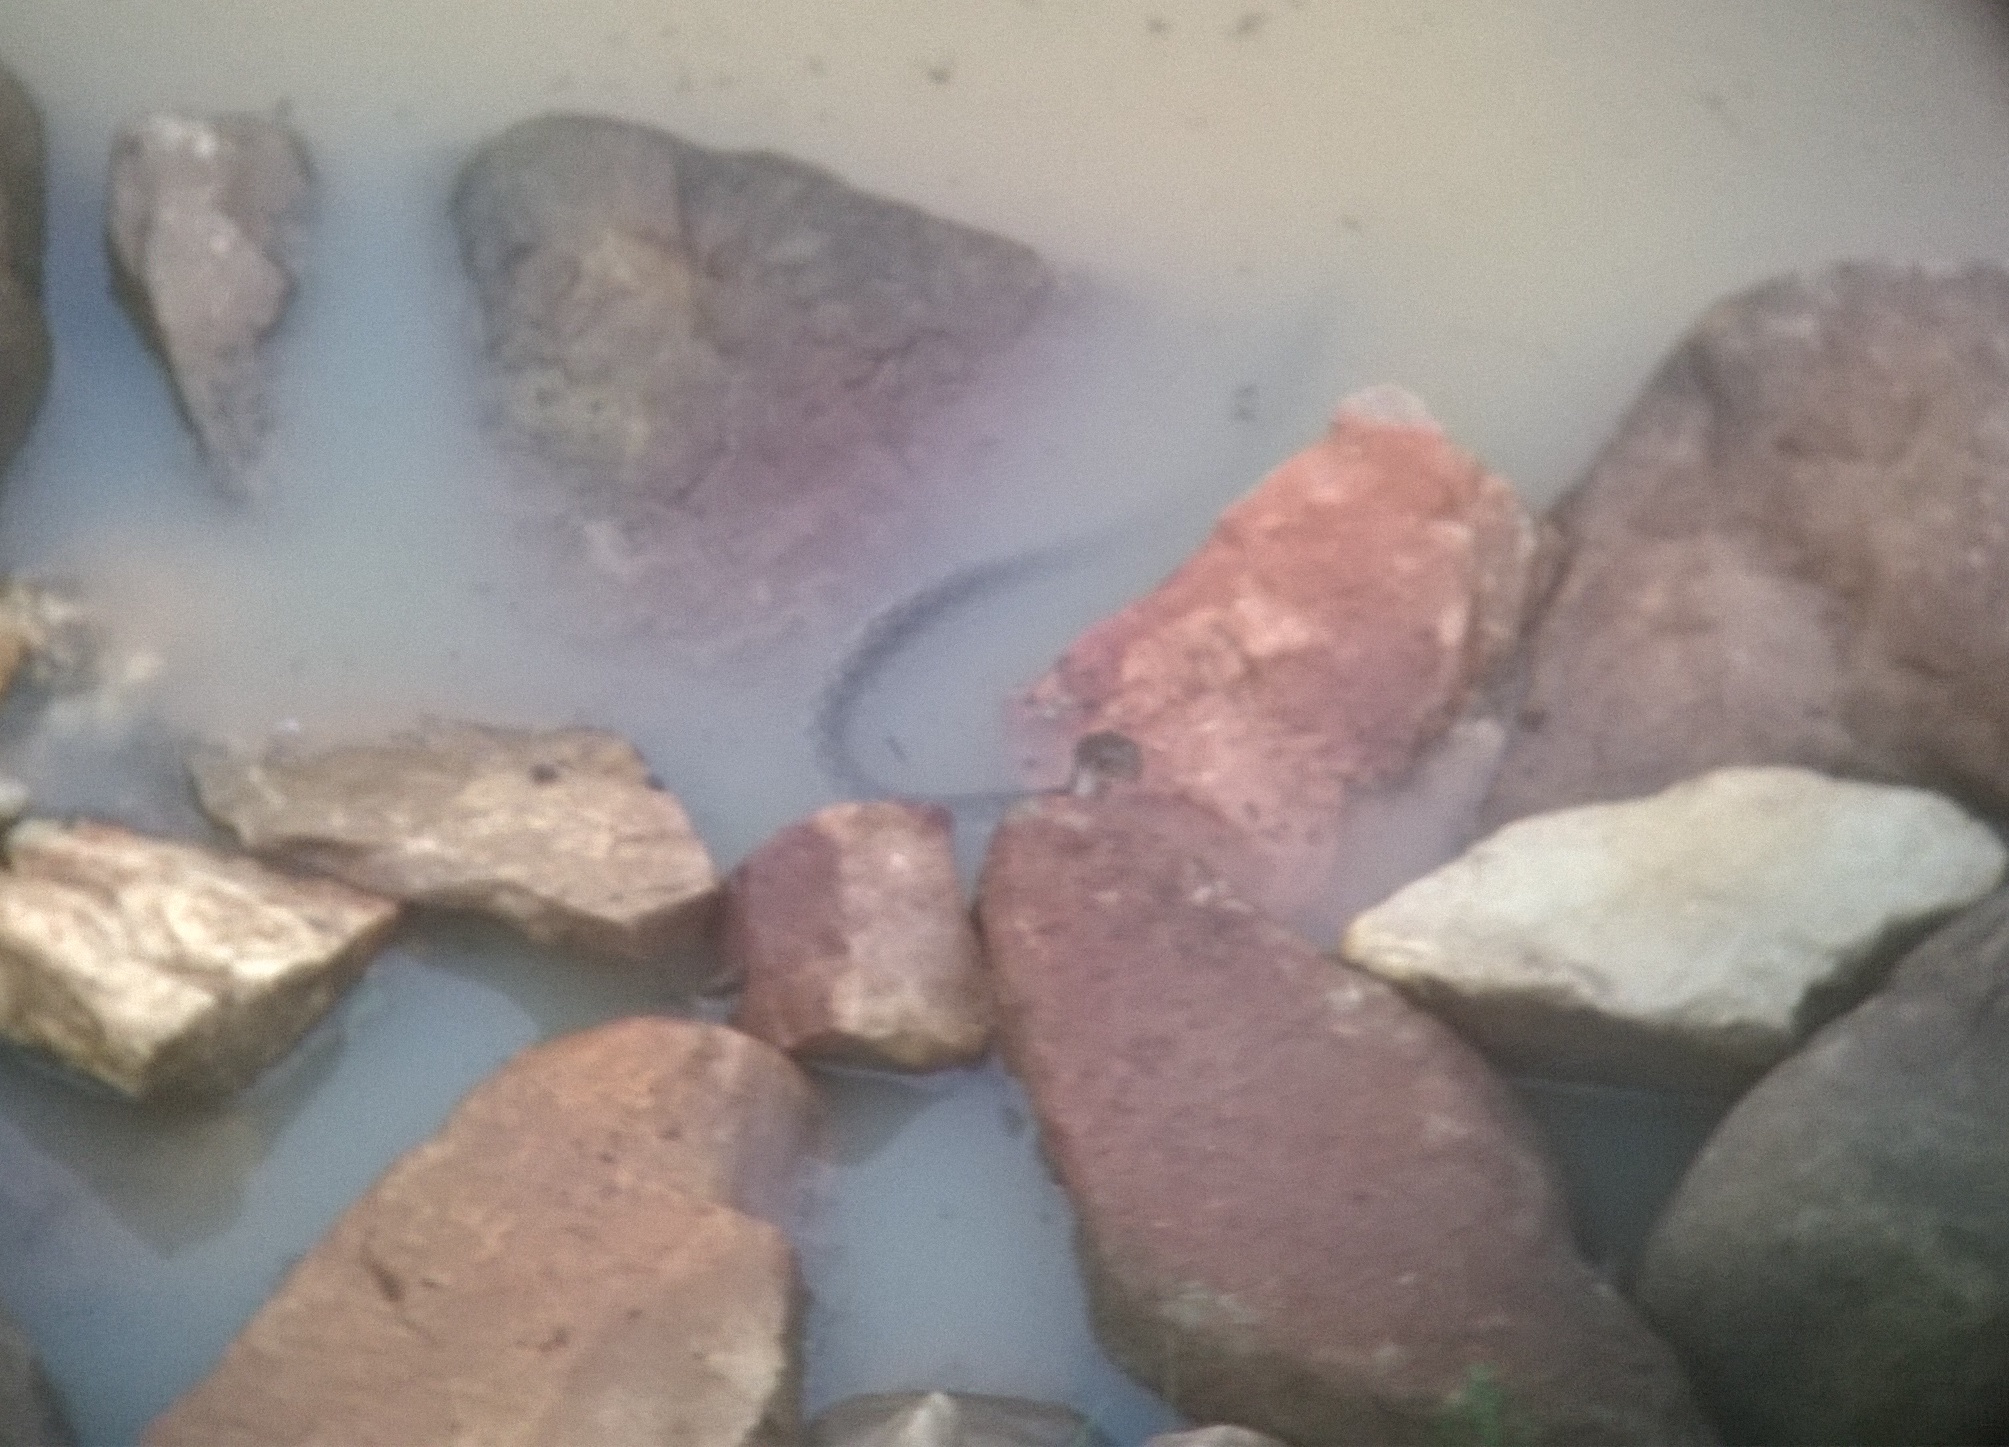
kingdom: Animalia
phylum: Chordata
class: Squamata
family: Colubridae
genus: Fowlea
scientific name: Fowlea piscator
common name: Asiatic water snake
